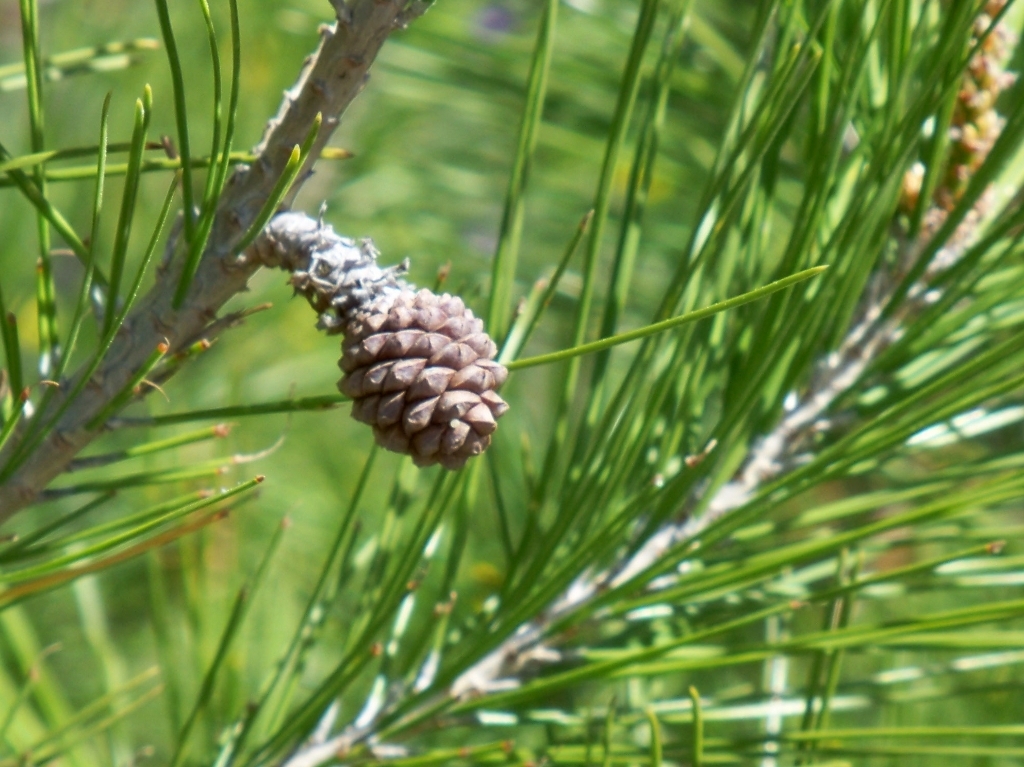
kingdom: Plantae
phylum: Tracheophyta
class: Pinopsida
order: Pinales
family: Pinaceae
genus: Pinus
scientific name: Pinus halepensis
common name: Aleppo pine
